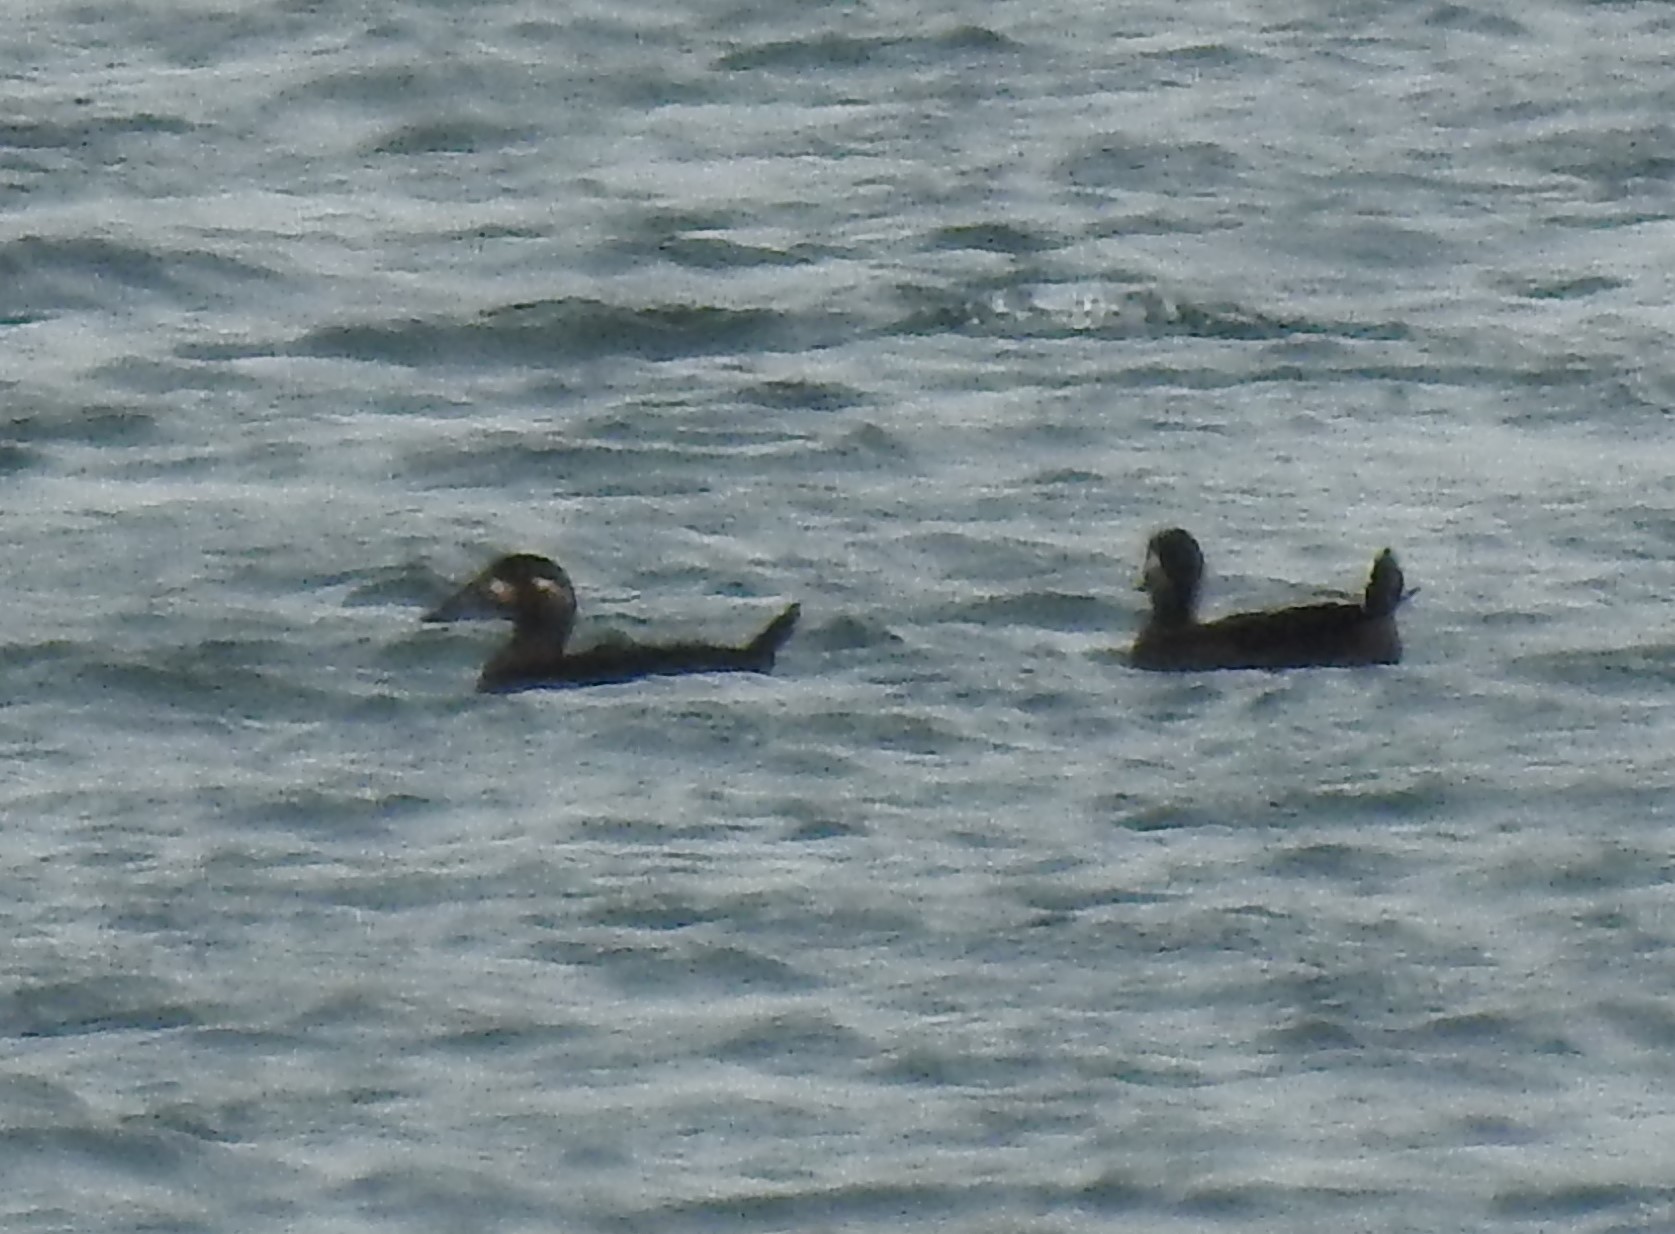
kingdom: Animalia
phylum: Chordata
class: Aves
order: Anseriformes
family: Anatidae
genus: Melanitta
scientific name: Melanitta perspicillata
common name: Surf scoter
